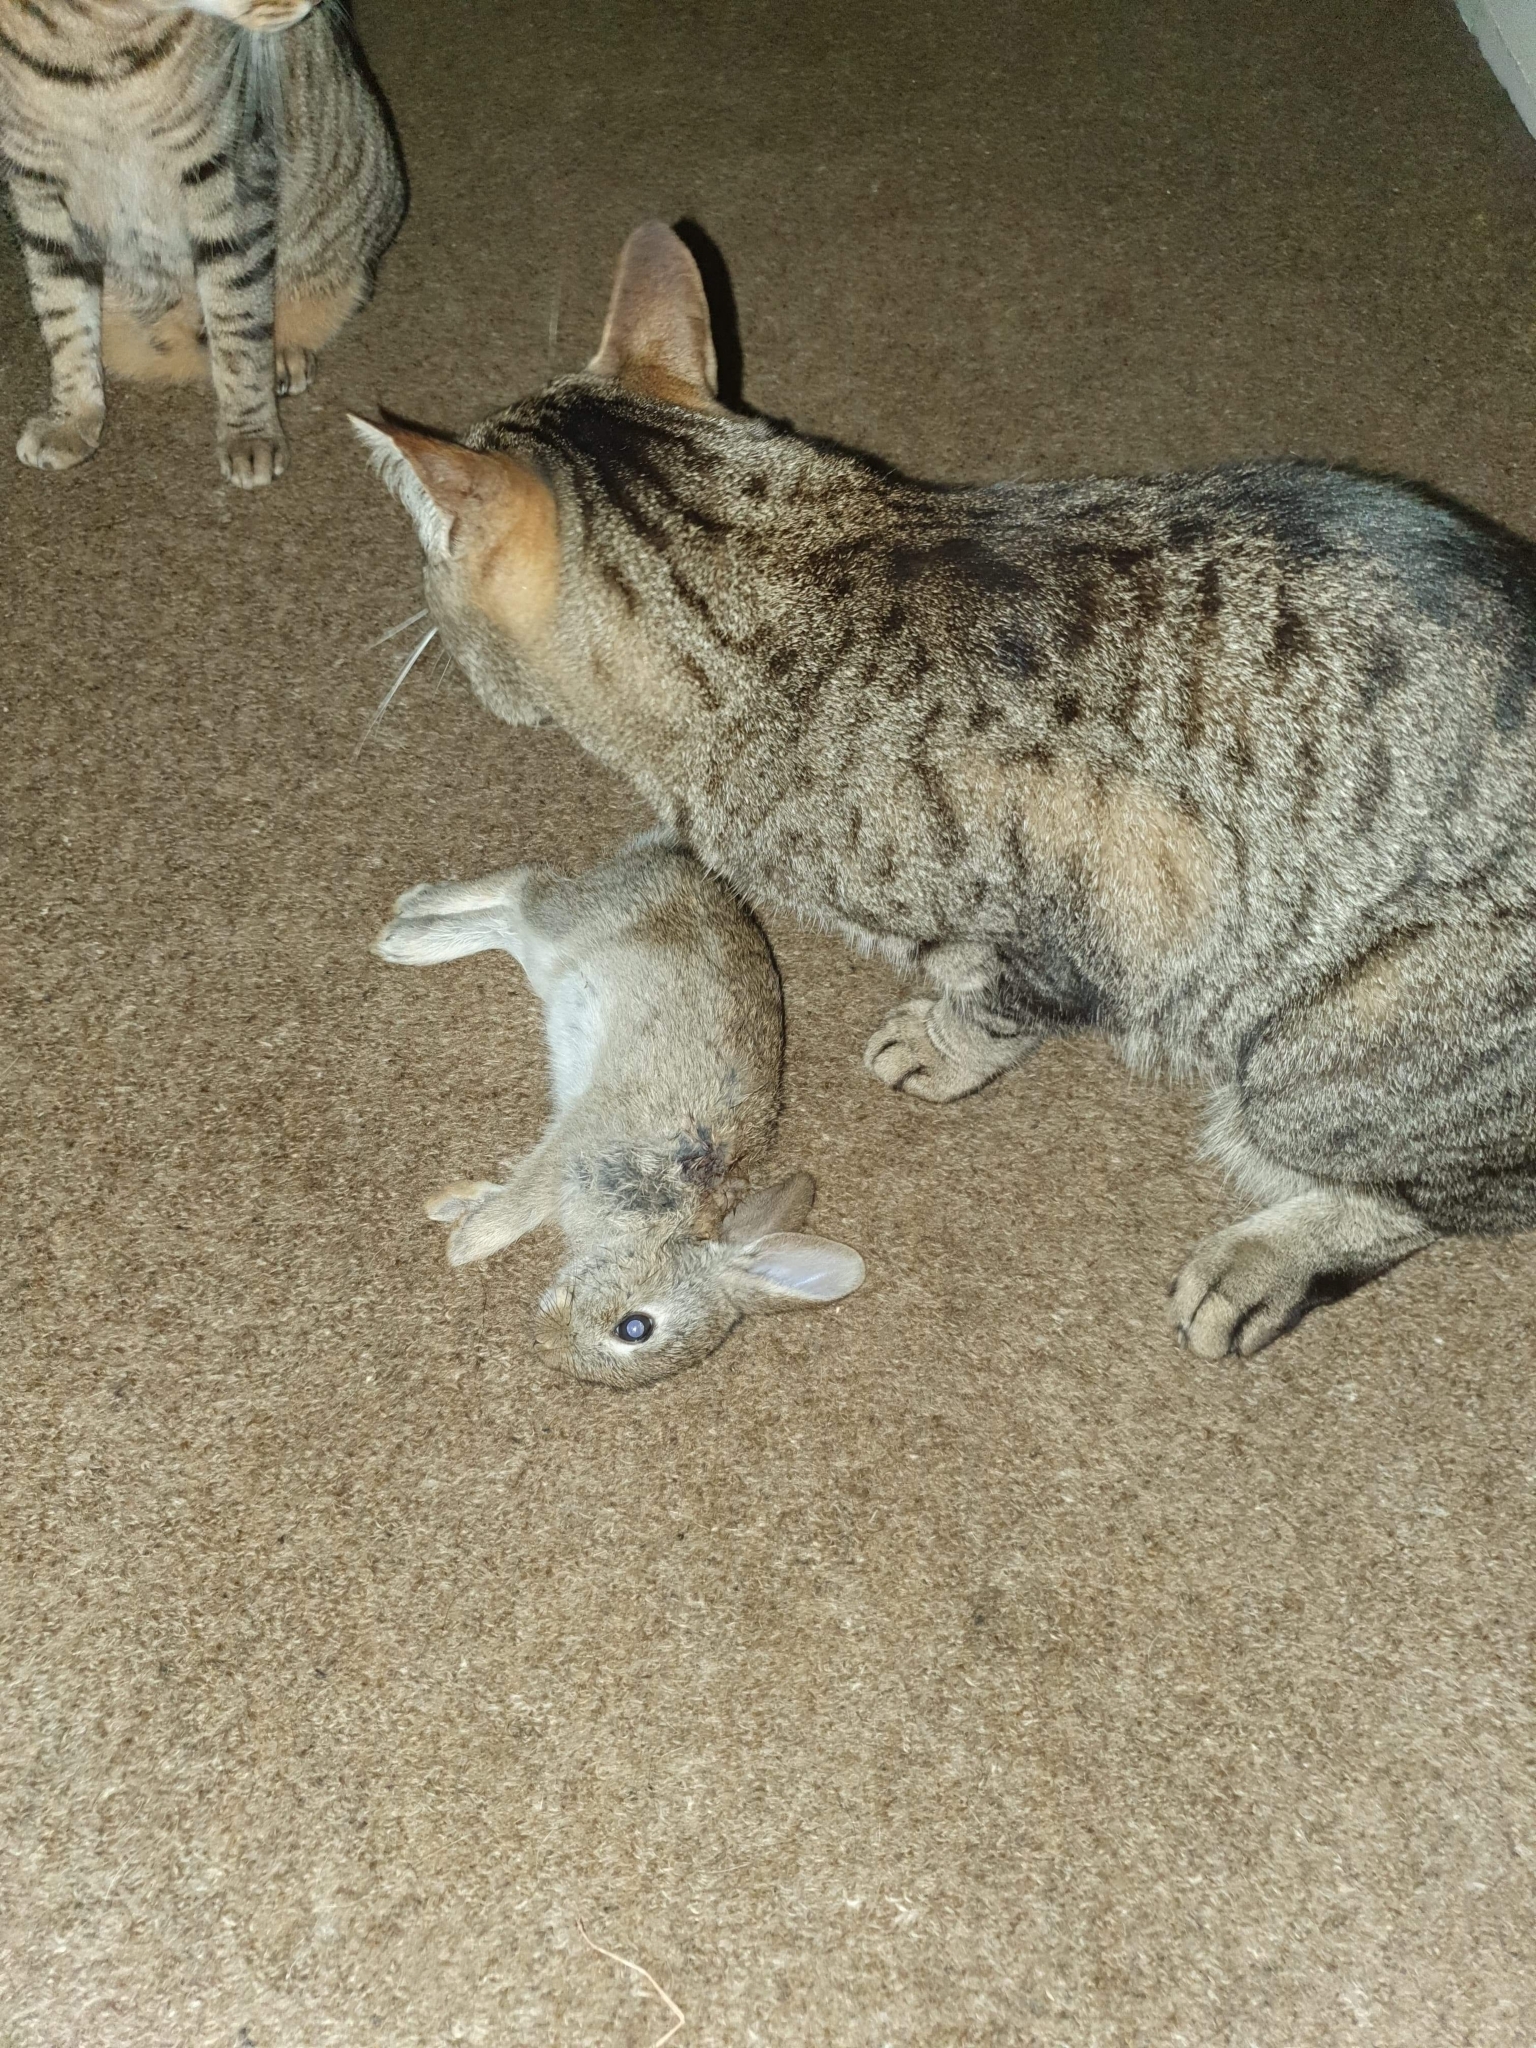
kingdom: Animalia
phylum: Chordata
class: Mammalia
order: Lagomorpha
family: Leporidae
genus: Oryctolagus
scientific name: Oryctolagus cuniculus
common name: European rabbit
